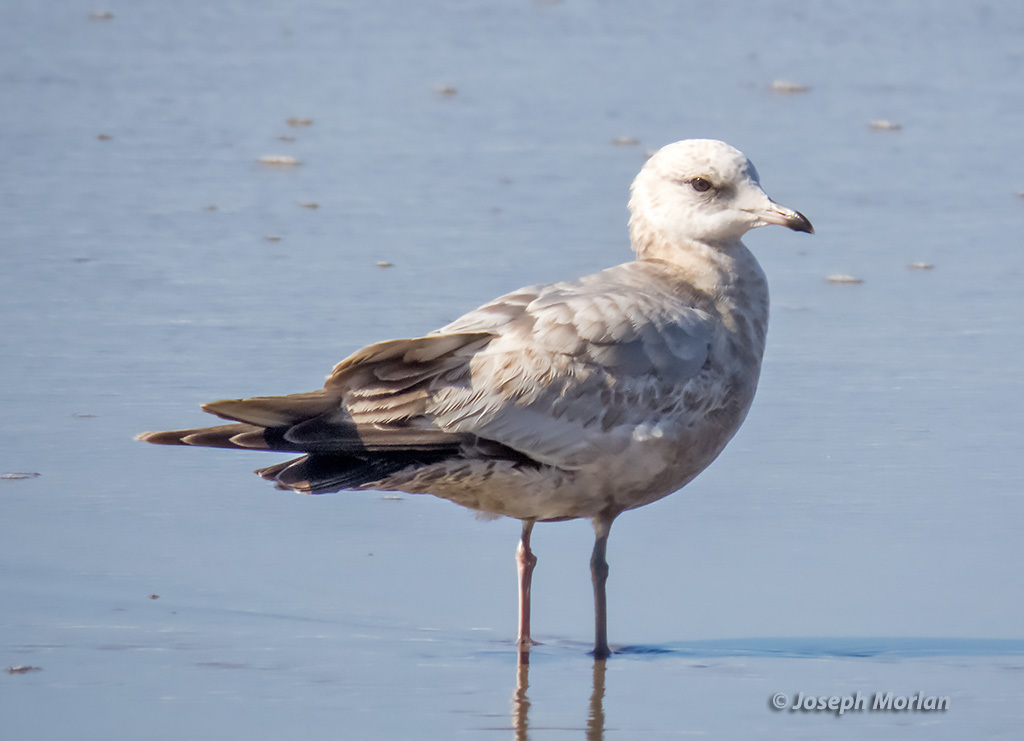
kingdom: Animalia
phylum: Chordata
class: Aves
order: Charadriiformes
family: Laridae
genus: Larus
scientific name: Larus brachyrhynchus
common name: Short-billed gull
